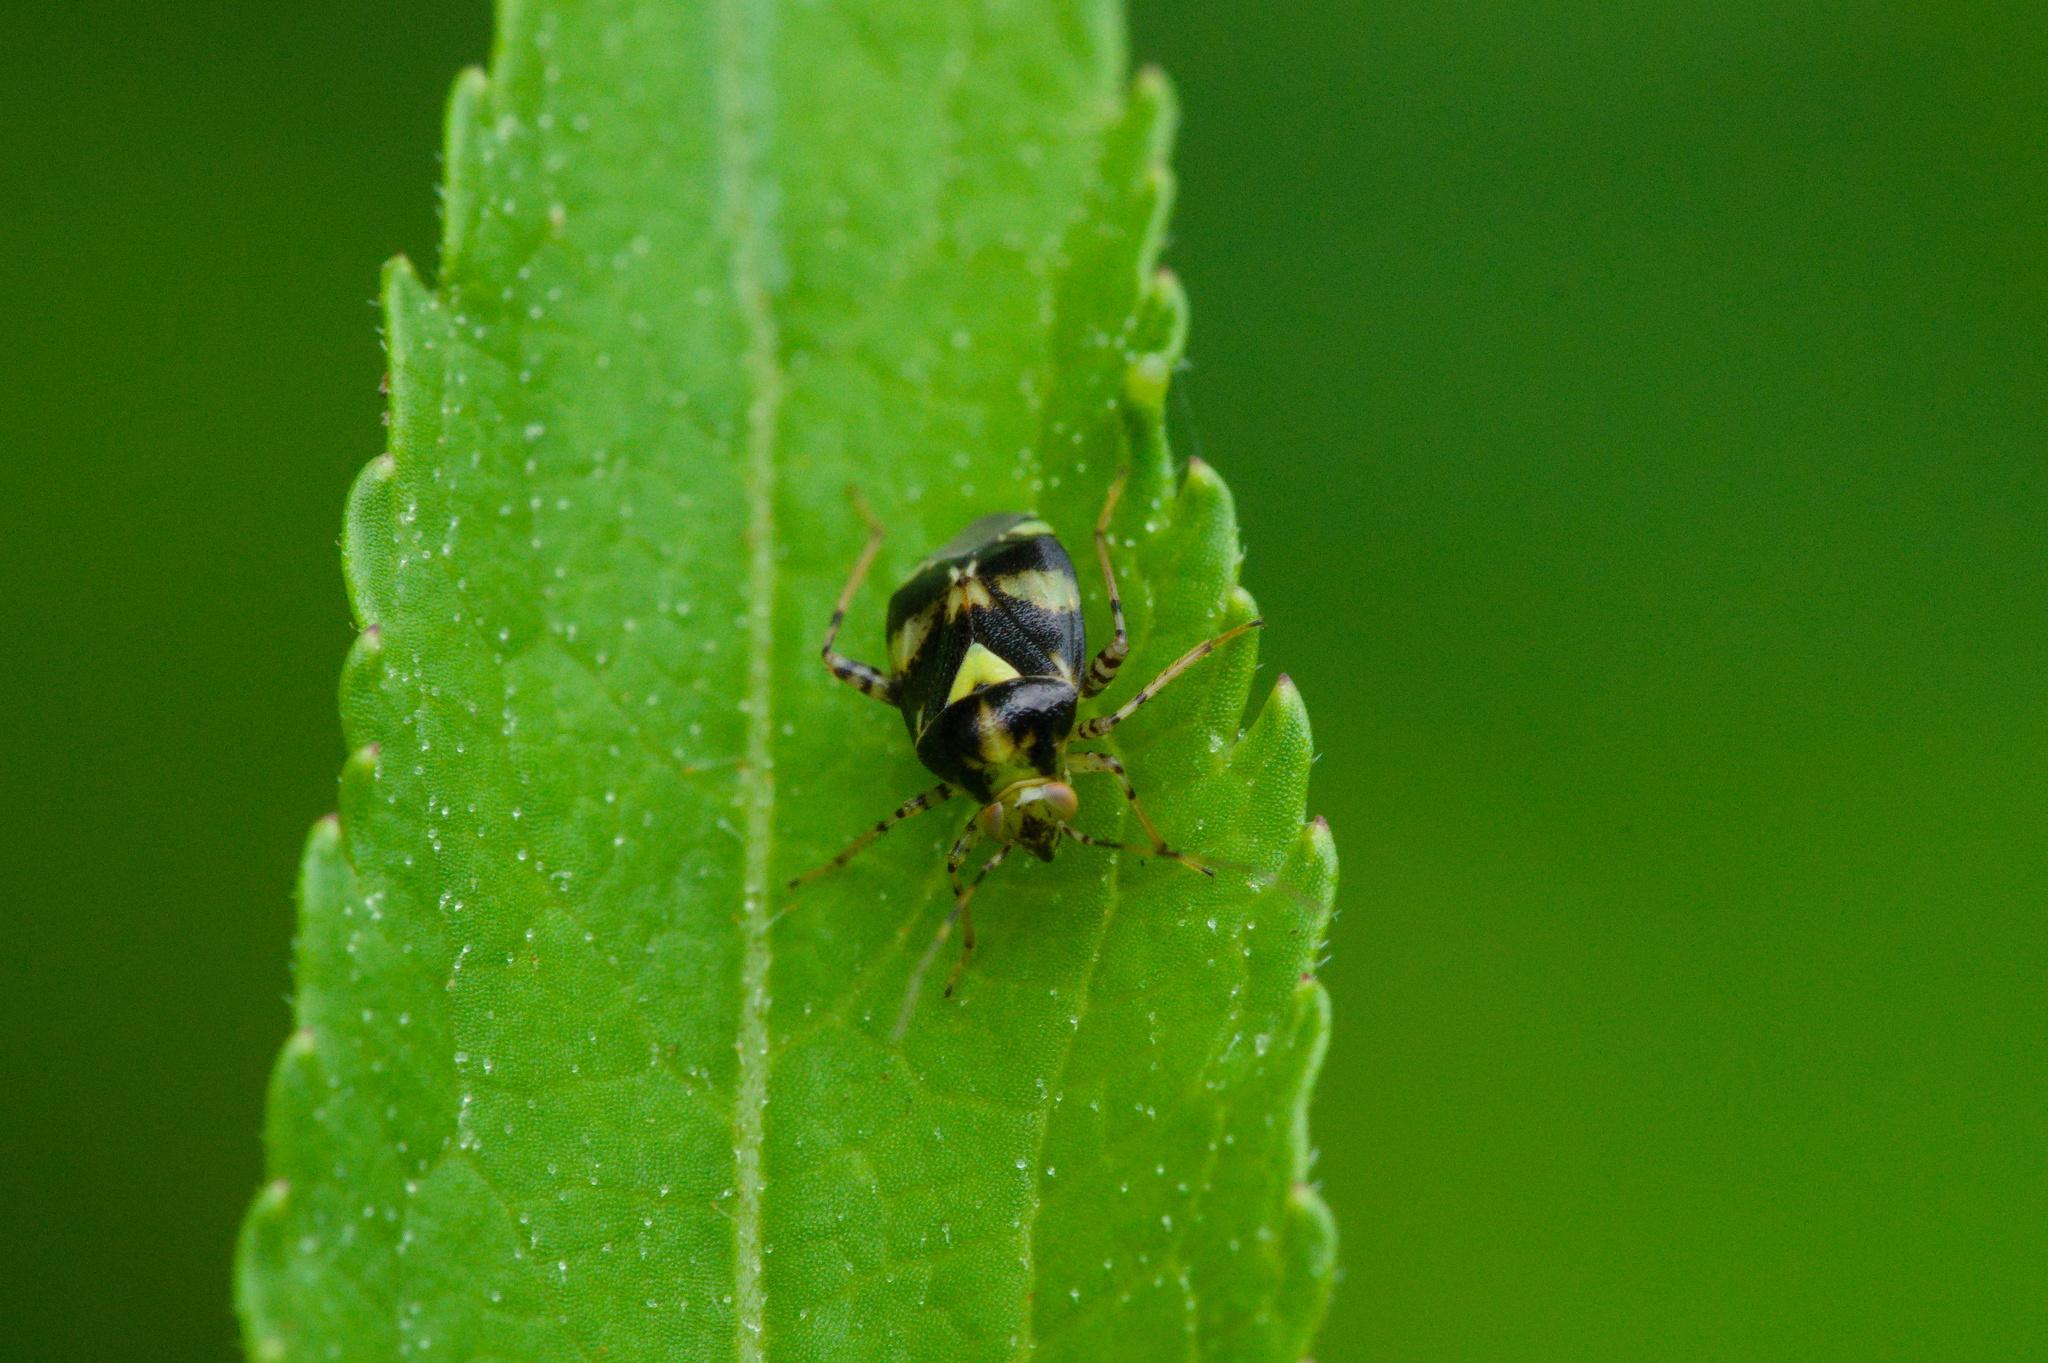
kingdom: Animalia
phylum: Arthropoda
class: Insecta
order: Hemiptera
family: Miridae
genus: Liocoris
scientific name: Liocoris tripustulatus
